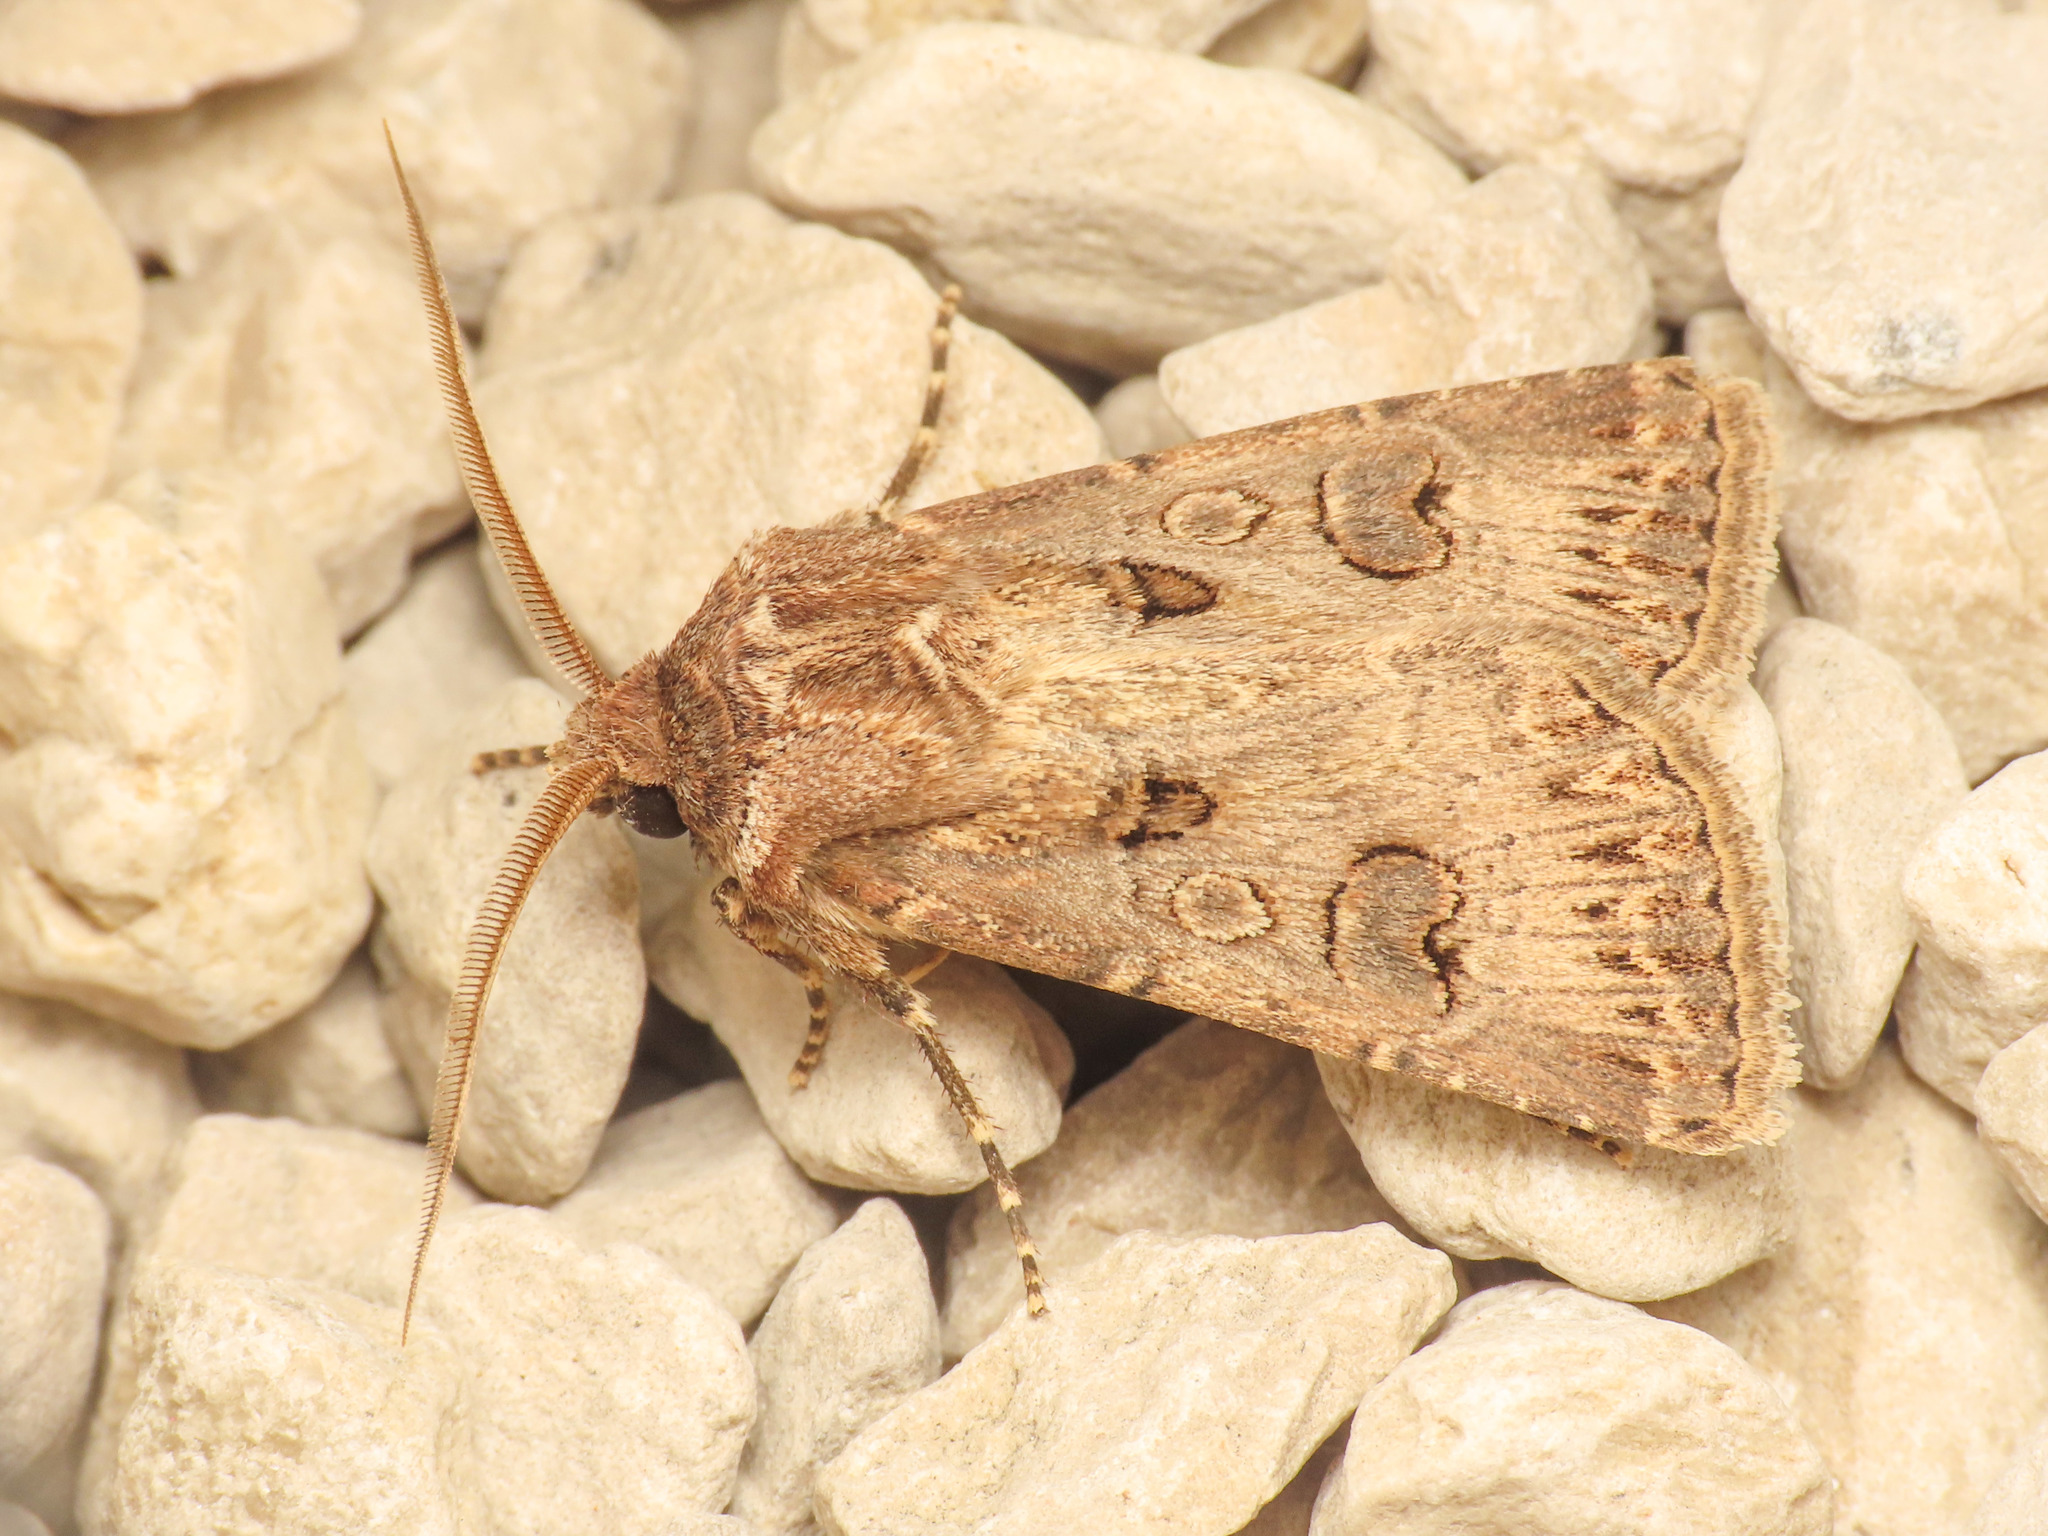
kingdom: Animalia
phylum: Arthropoda
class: Insecta
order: Lepidoptera
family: Noctuidae
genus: Agrotis
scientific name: Agrotis bigramma
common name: Great dart
